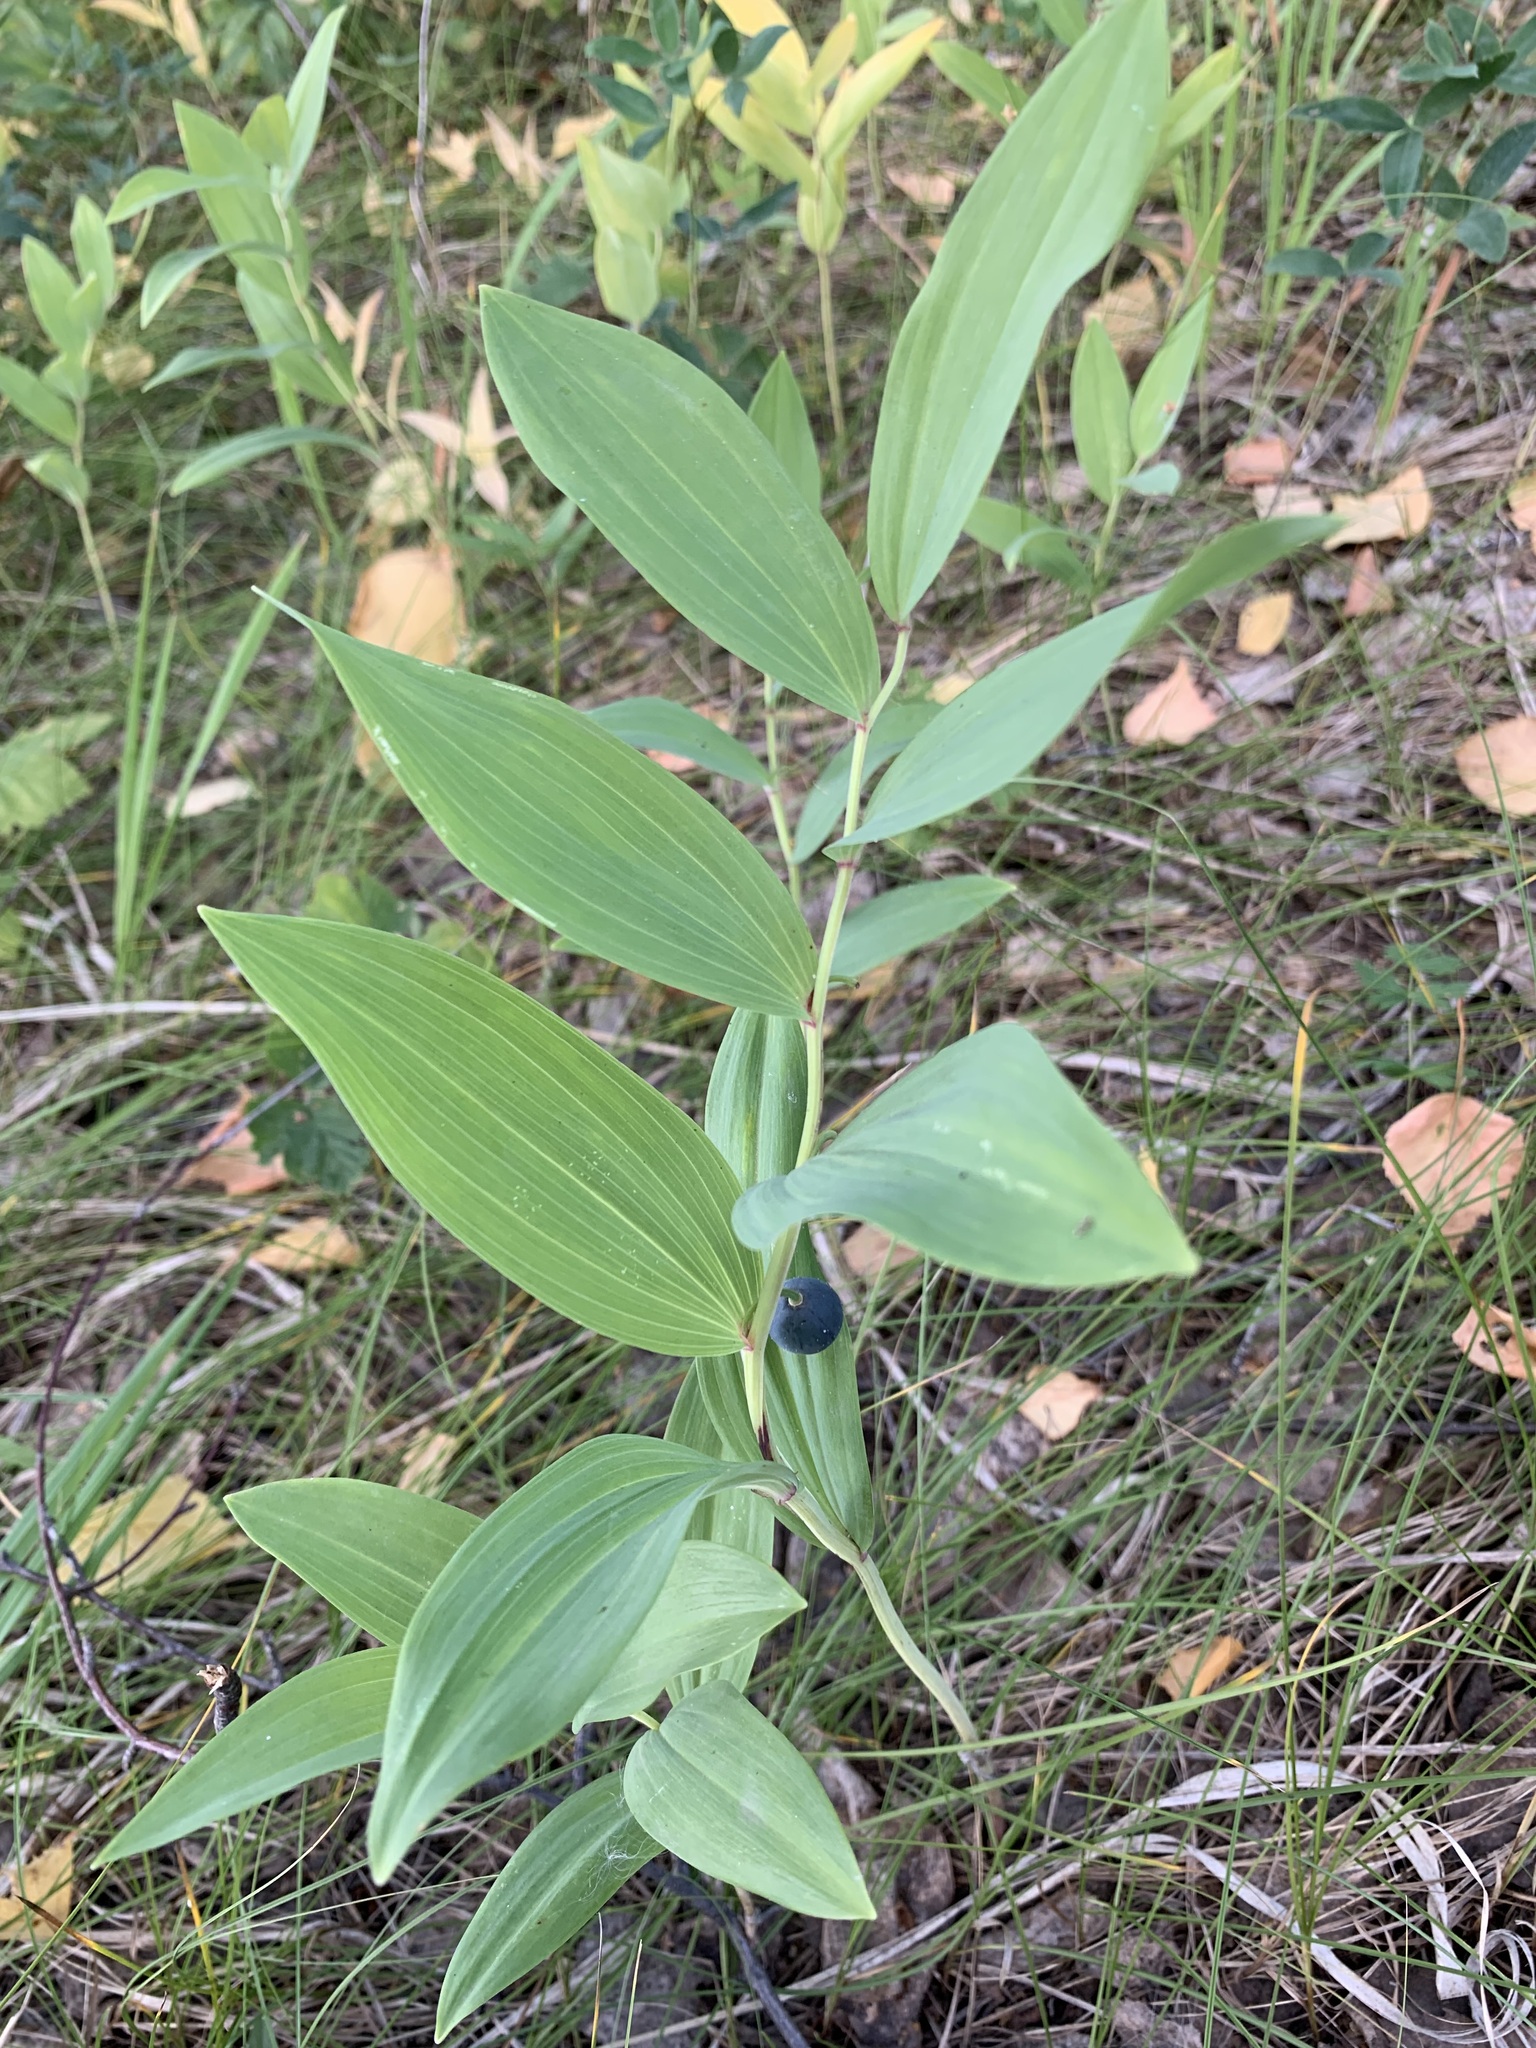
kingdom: Plantae
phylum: Tracheophyta
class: Liliopsida
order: Asparagales
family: Asparagaceae
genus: Polygonatum
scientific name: Polygonatum odoratum
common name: Angular solomon's-seal
